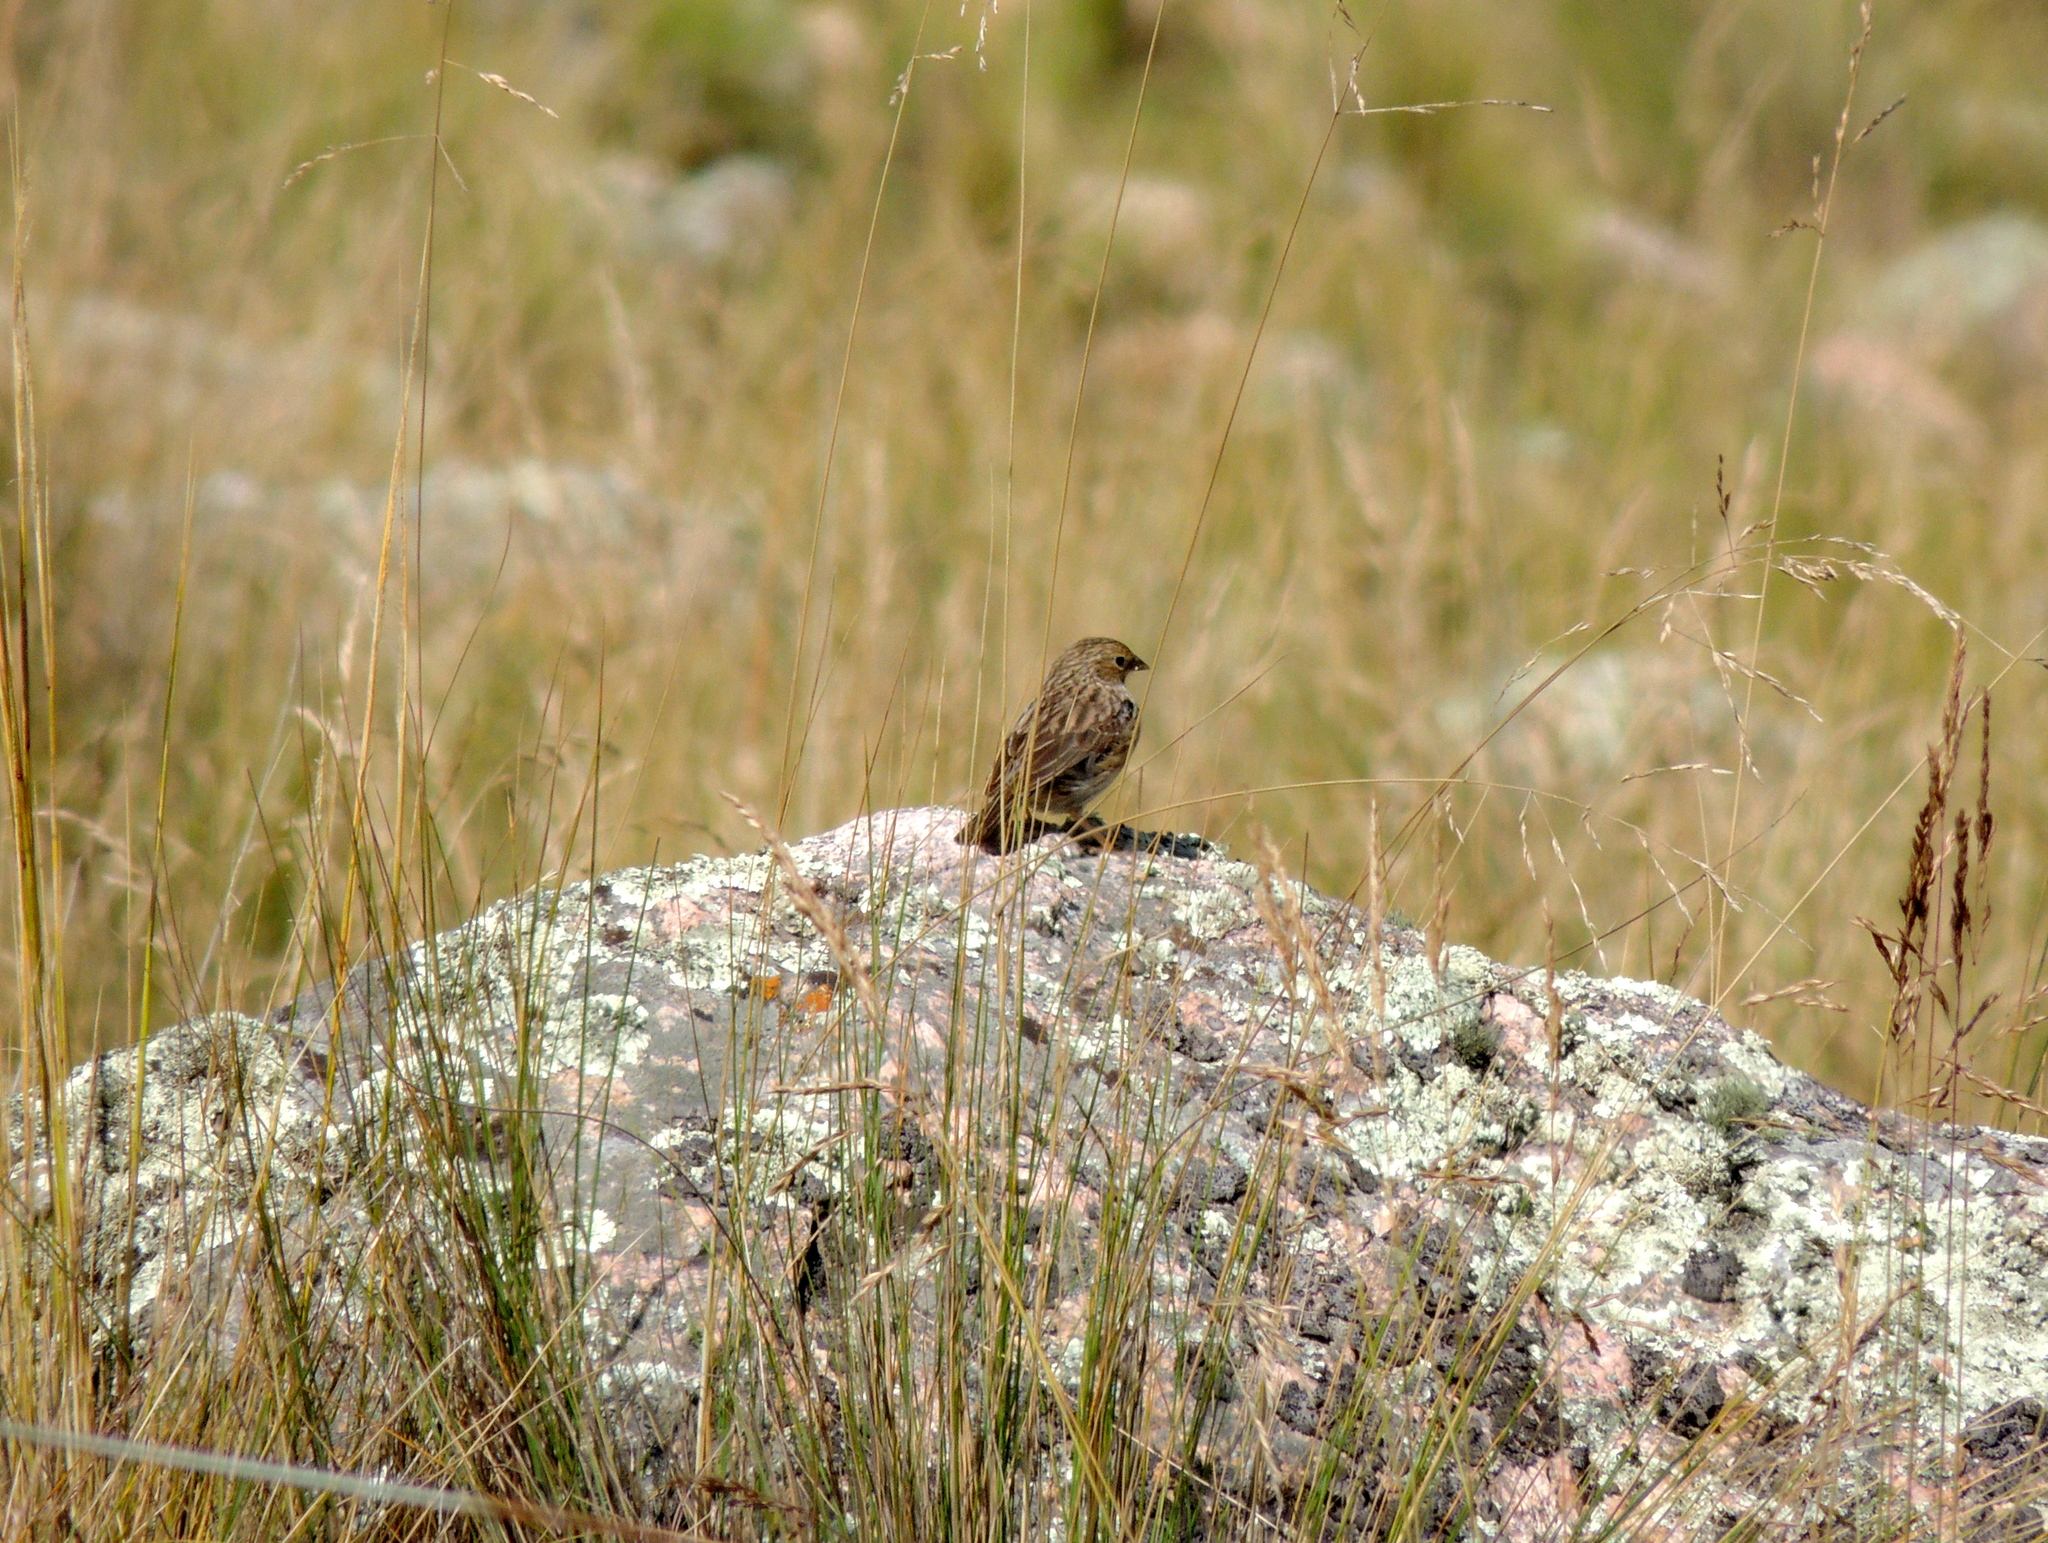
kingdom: Animalia
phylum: Chordata
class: Aves
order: Passeriformes
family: Thraupidae
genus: Porphyrospiza
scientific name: Porphyrospiza alaudina
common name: Band-tailed sierra finch
